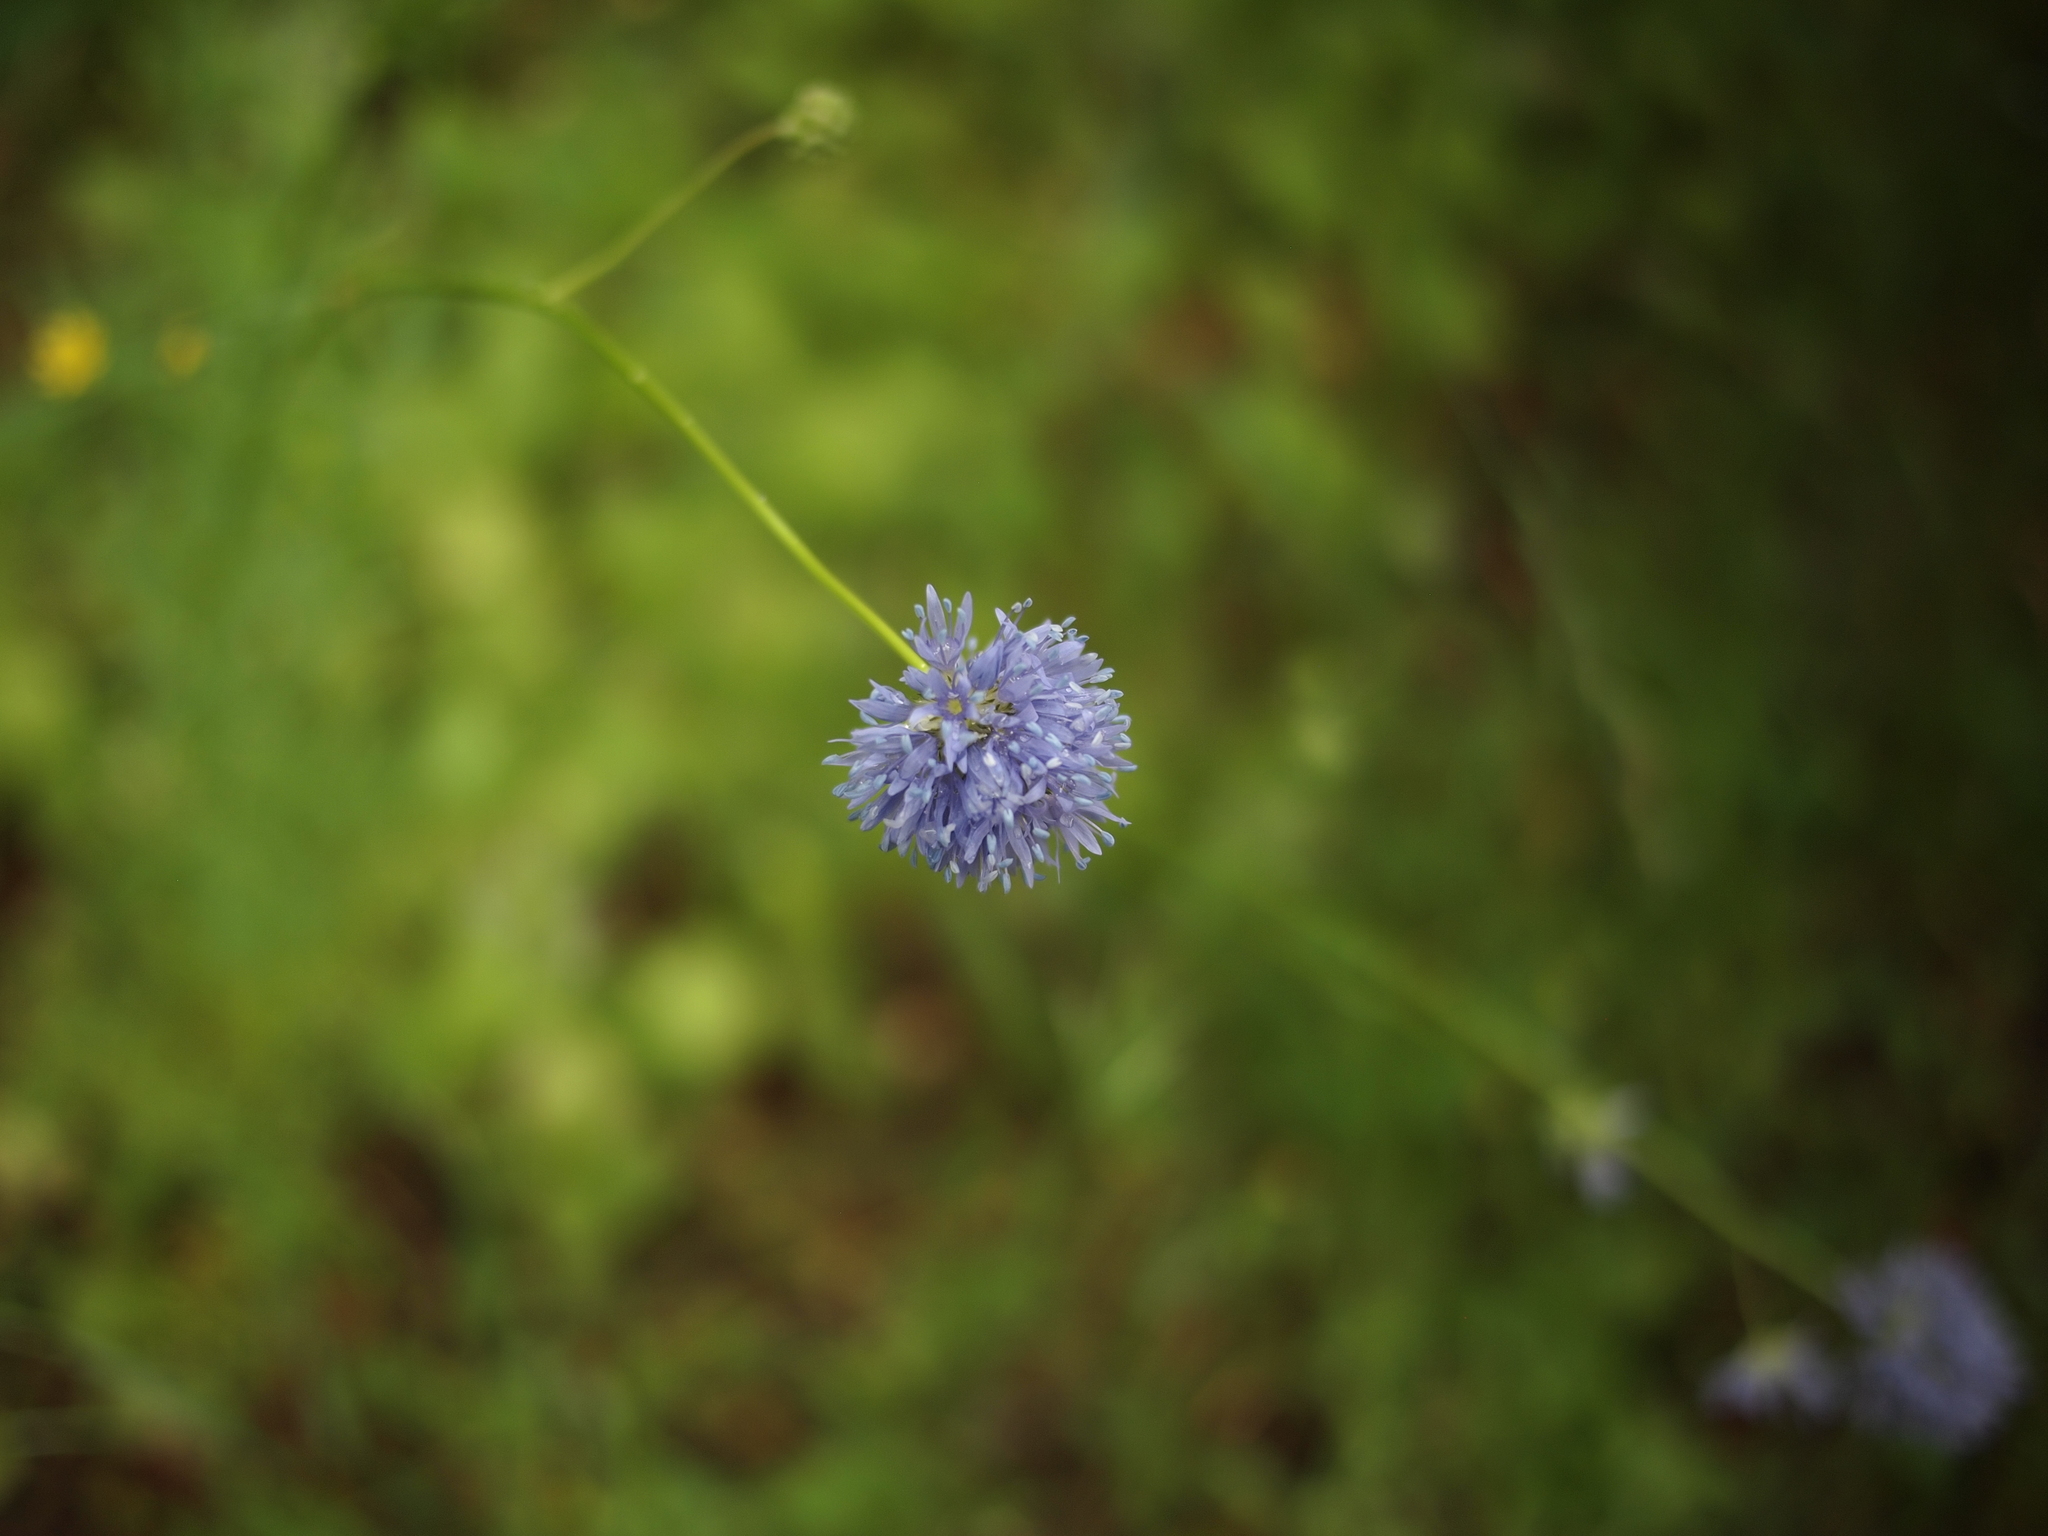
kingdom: Plantae
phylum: Tracheophyta
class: Magnoliopsida
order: Ericales
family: Polemoniaceae
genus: Gilia
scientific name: Gilia capitata
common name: Bluehead gilia
